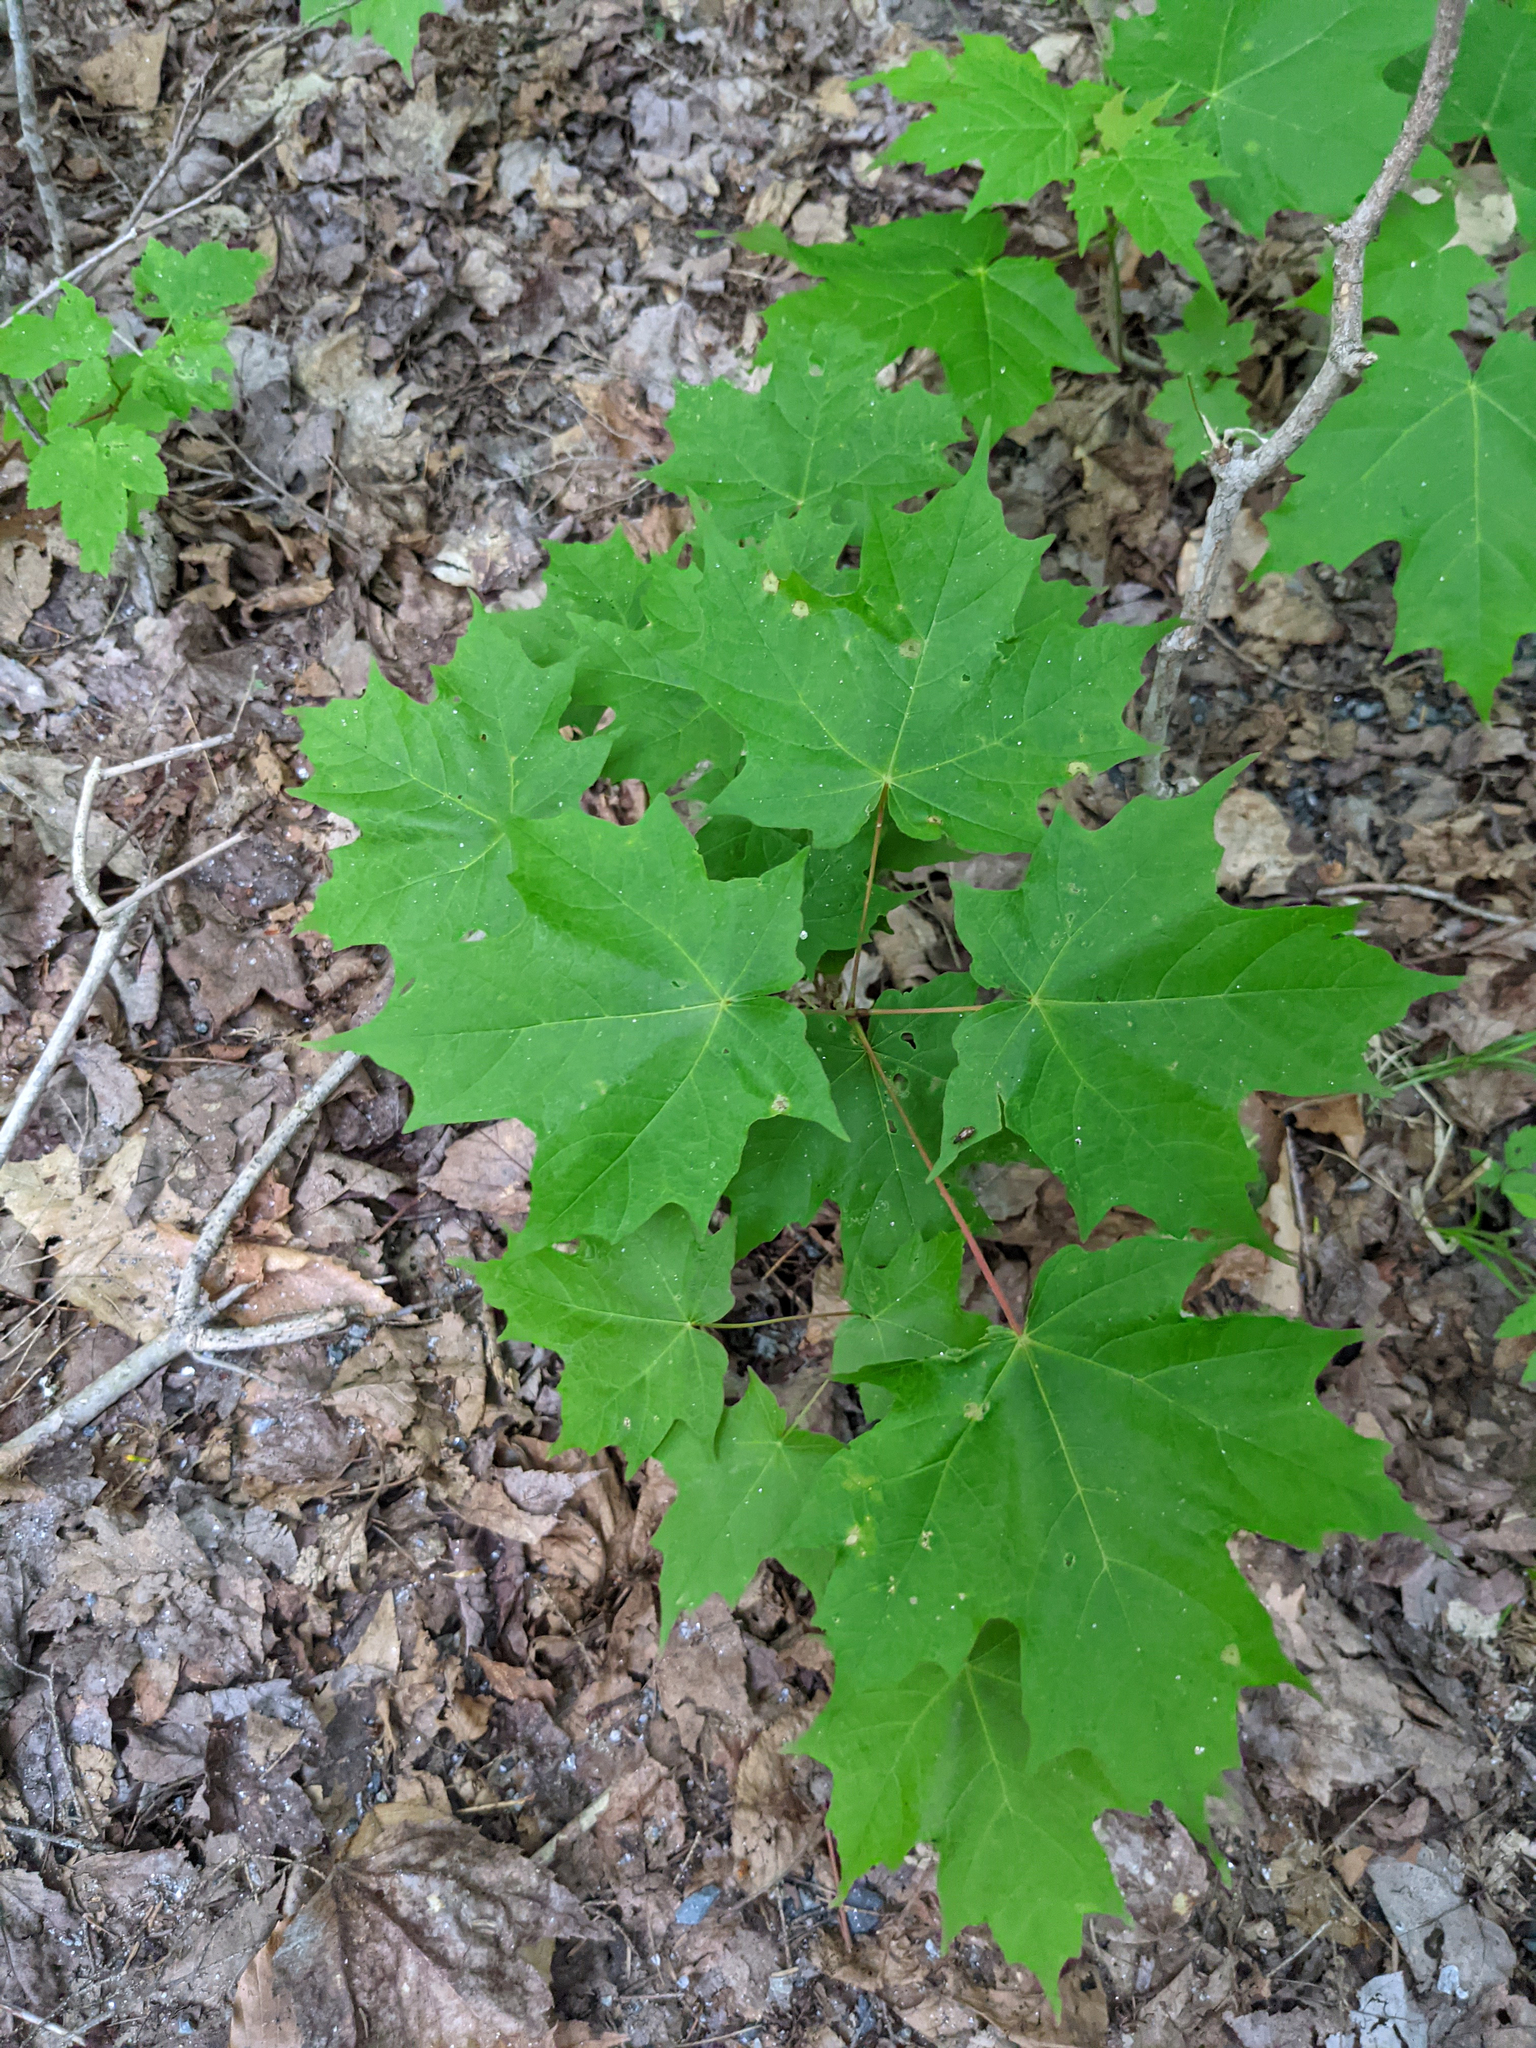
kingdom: Plantae
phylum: Tracheophyta
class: Magnoliopsida
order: Sapindales
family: Sapindaceae
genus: Acer
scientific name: Acer saccharum
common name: Sugar maple
